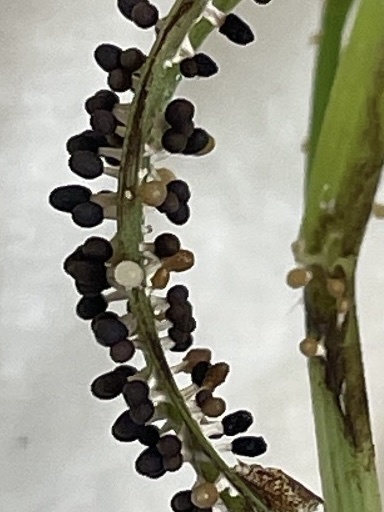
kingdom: Protozoa
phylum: Mycetozoa
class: Myxomycetes
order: Physarales
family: Didymiaceae
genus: Diachea
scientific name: Diachea leucopodia
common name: White-footed slime
